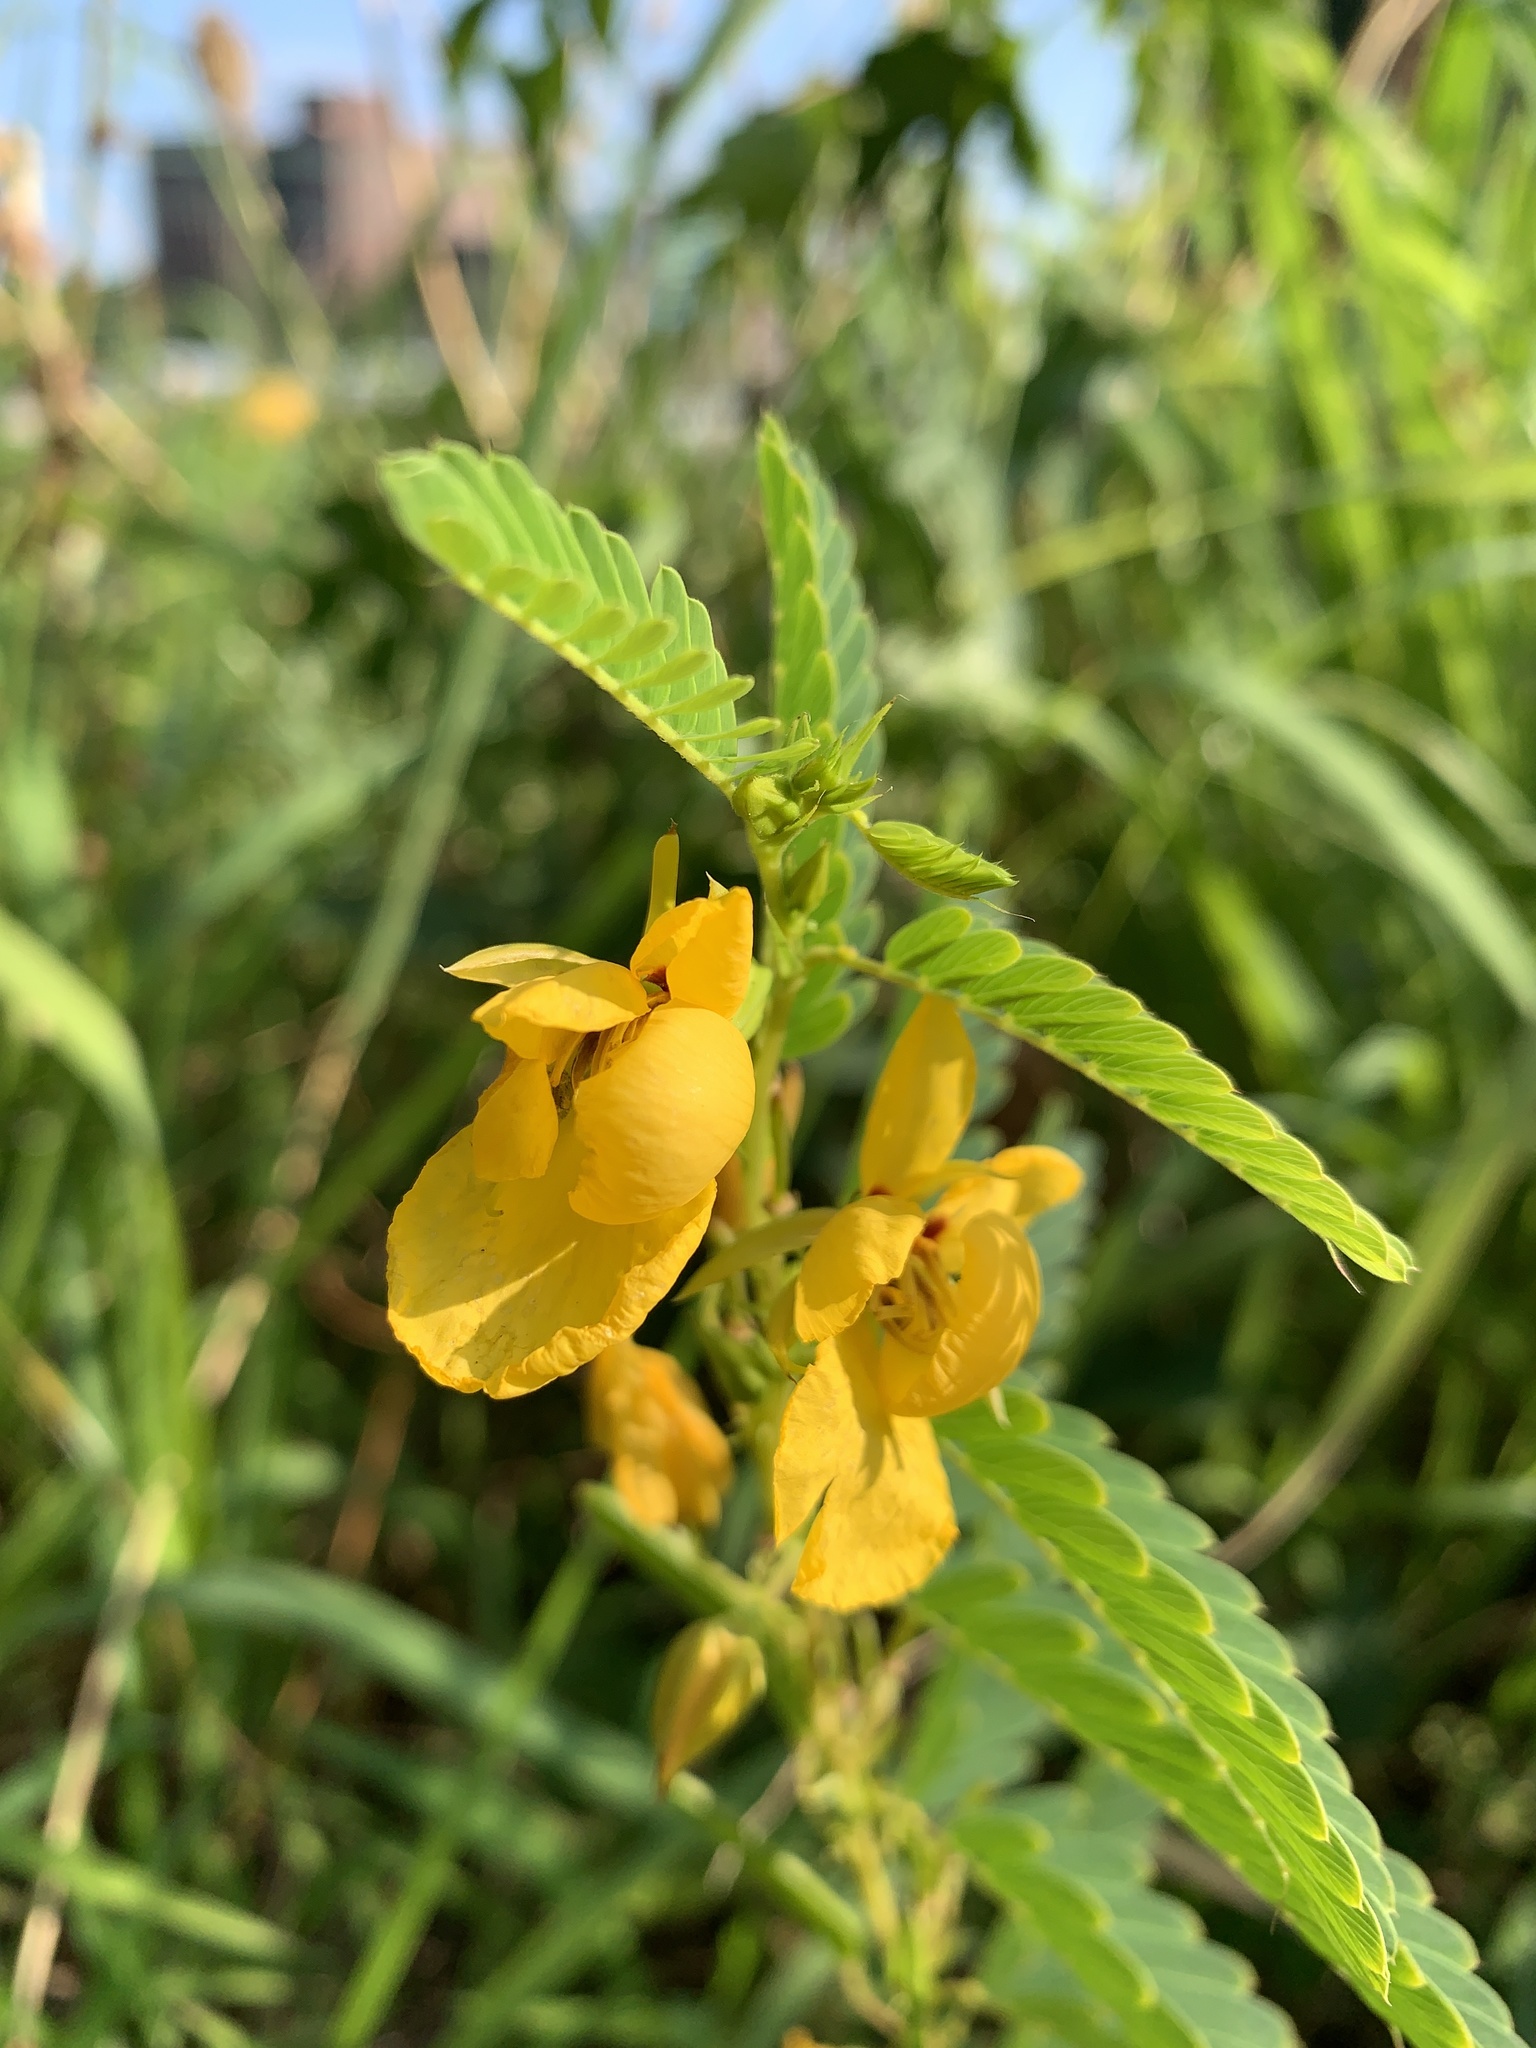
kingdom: Plantae
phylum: Tracheophyta
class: Magnoliopsida
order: Fabales
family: Fabaceae
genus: Chamaecrista
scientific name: Chamaecrista fasciculata
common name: Golden cassia
